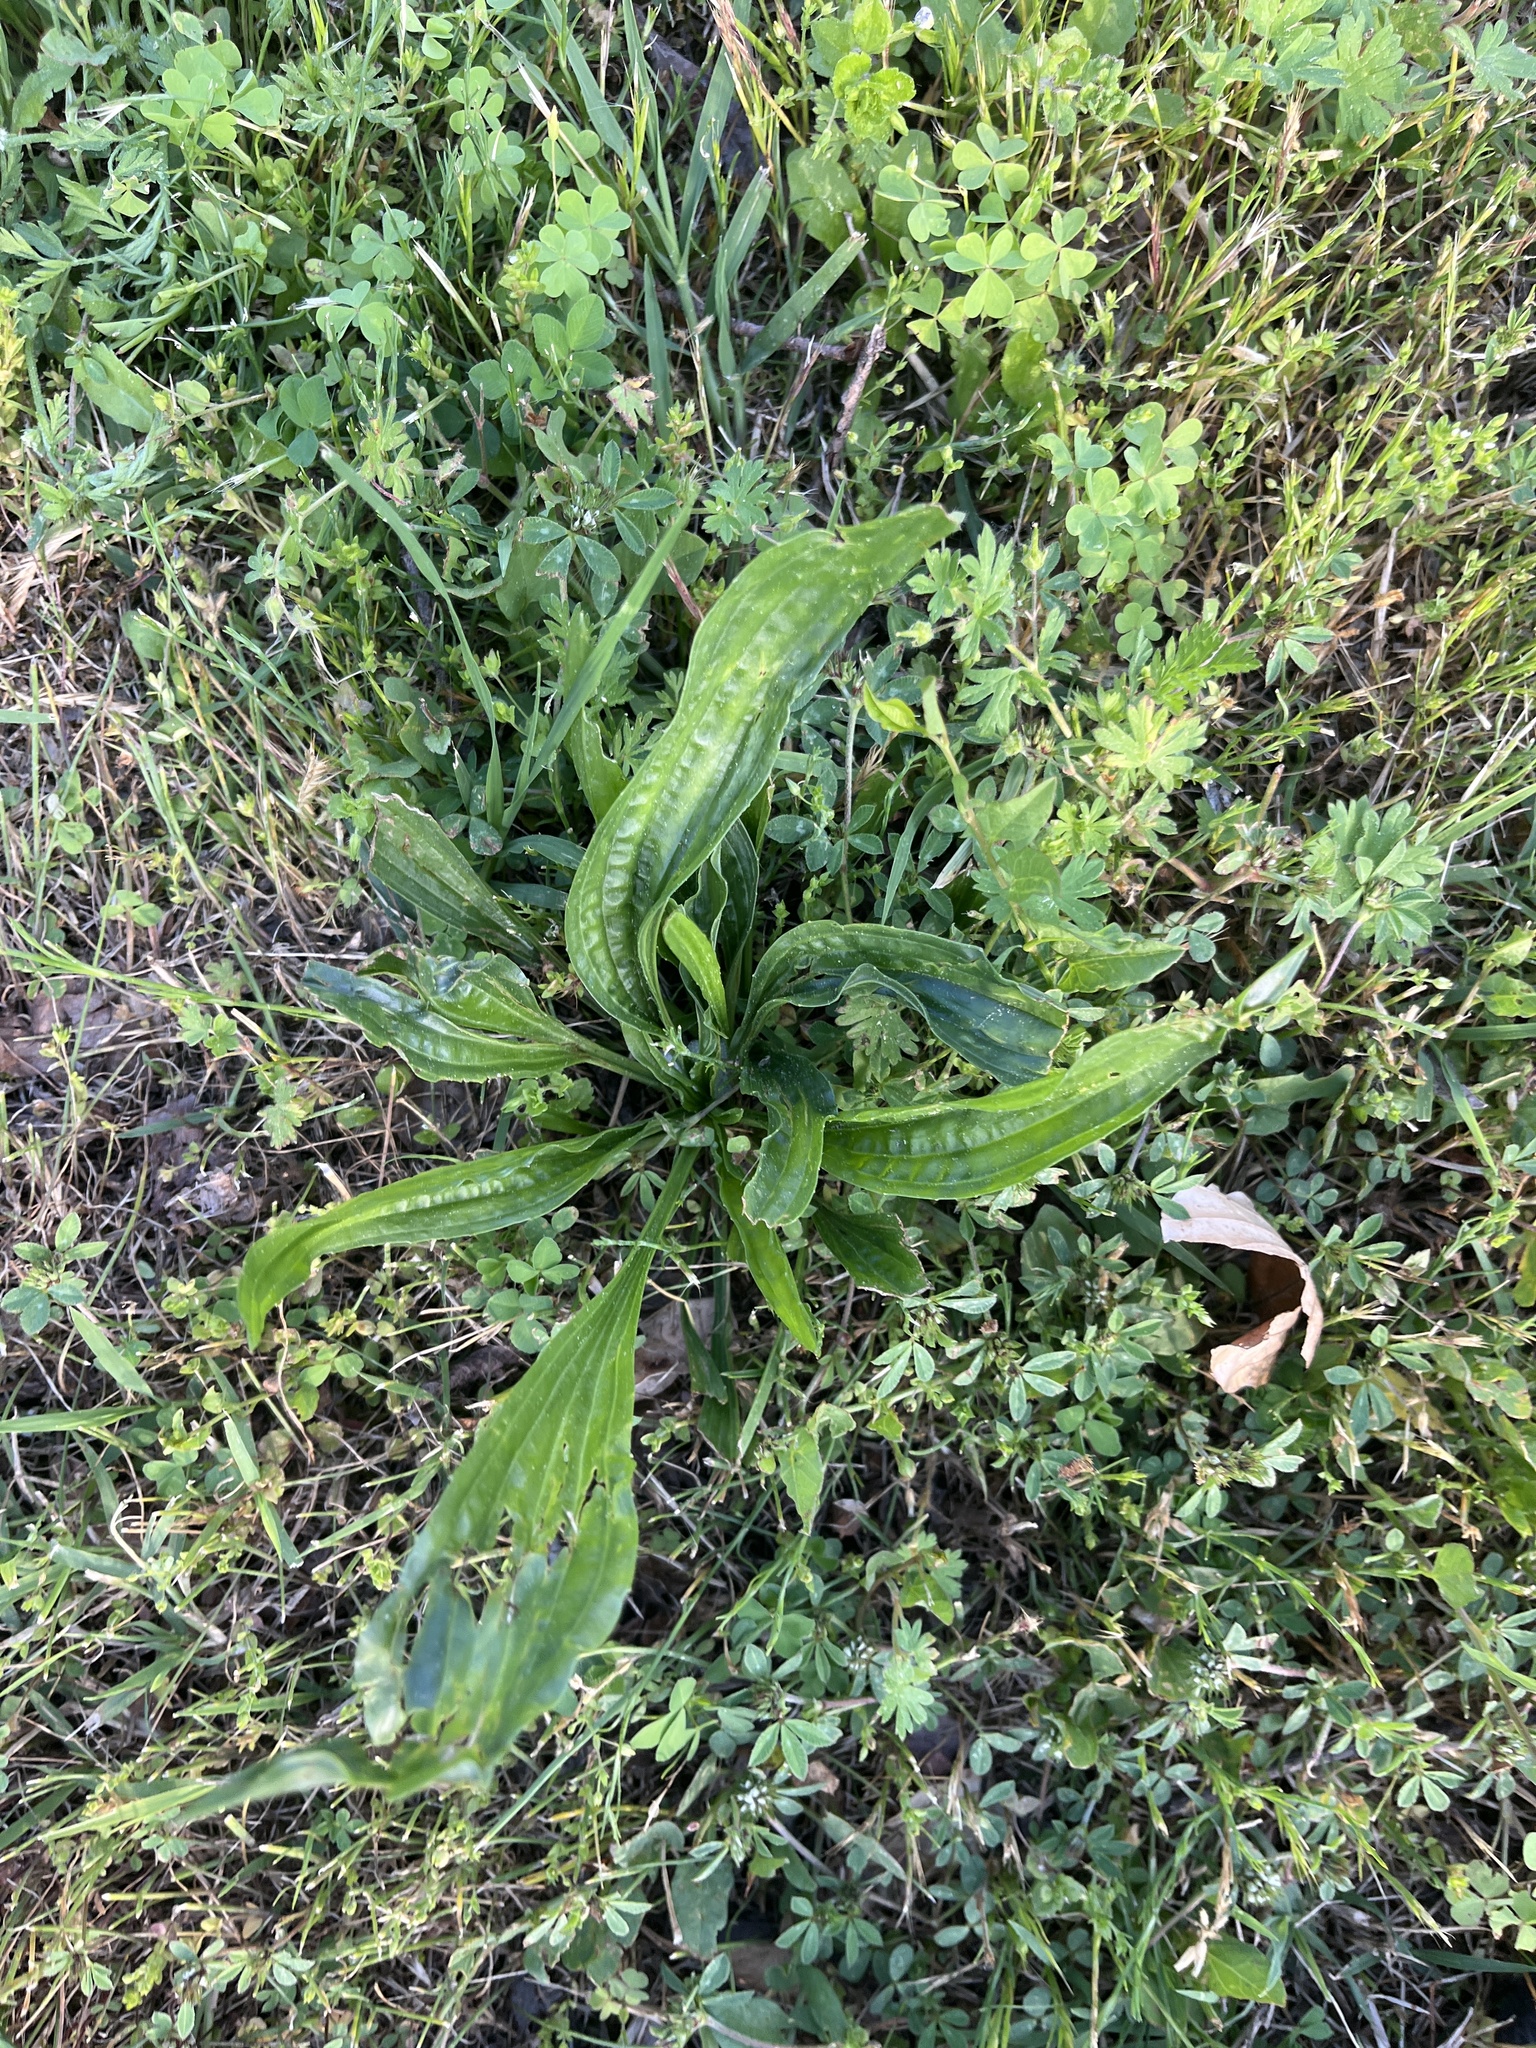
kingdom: Plantae
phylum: Tracheophyta
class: Magnoliopsida
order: Lamiales
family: Plantaginaceae
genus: Plantago
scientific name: Plantago lanceolata
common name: Ribwort plantain
